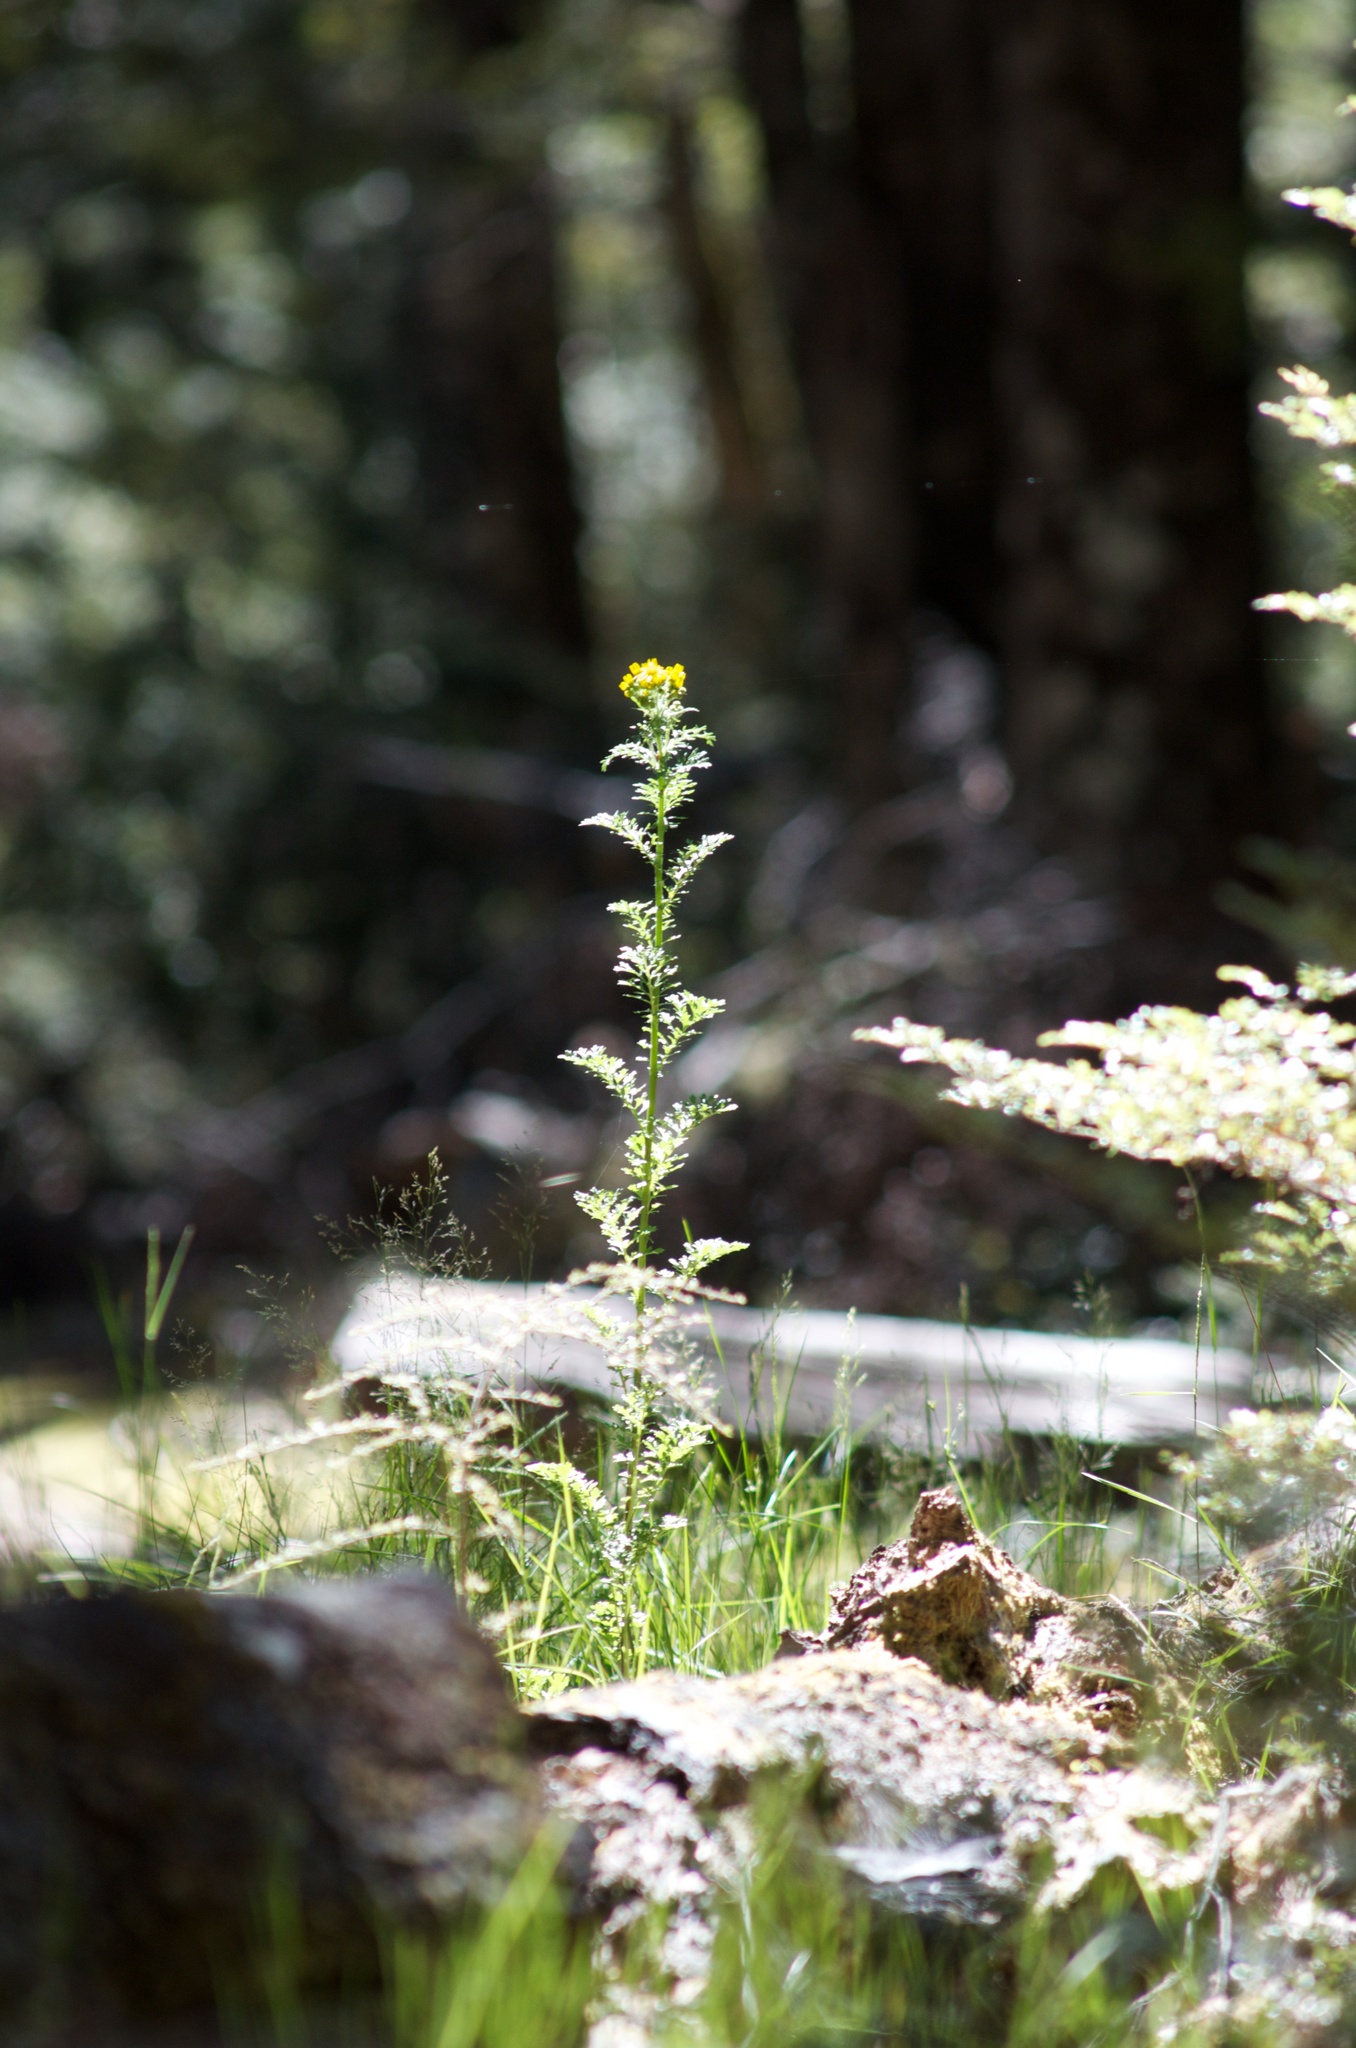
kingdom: Plantae
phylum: Tracheophyta
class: Magnoliopsida
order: Asterales
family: Asteraceae
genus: Jacobaea
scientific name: Jacobaea vulgaris
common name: Stinking willie
